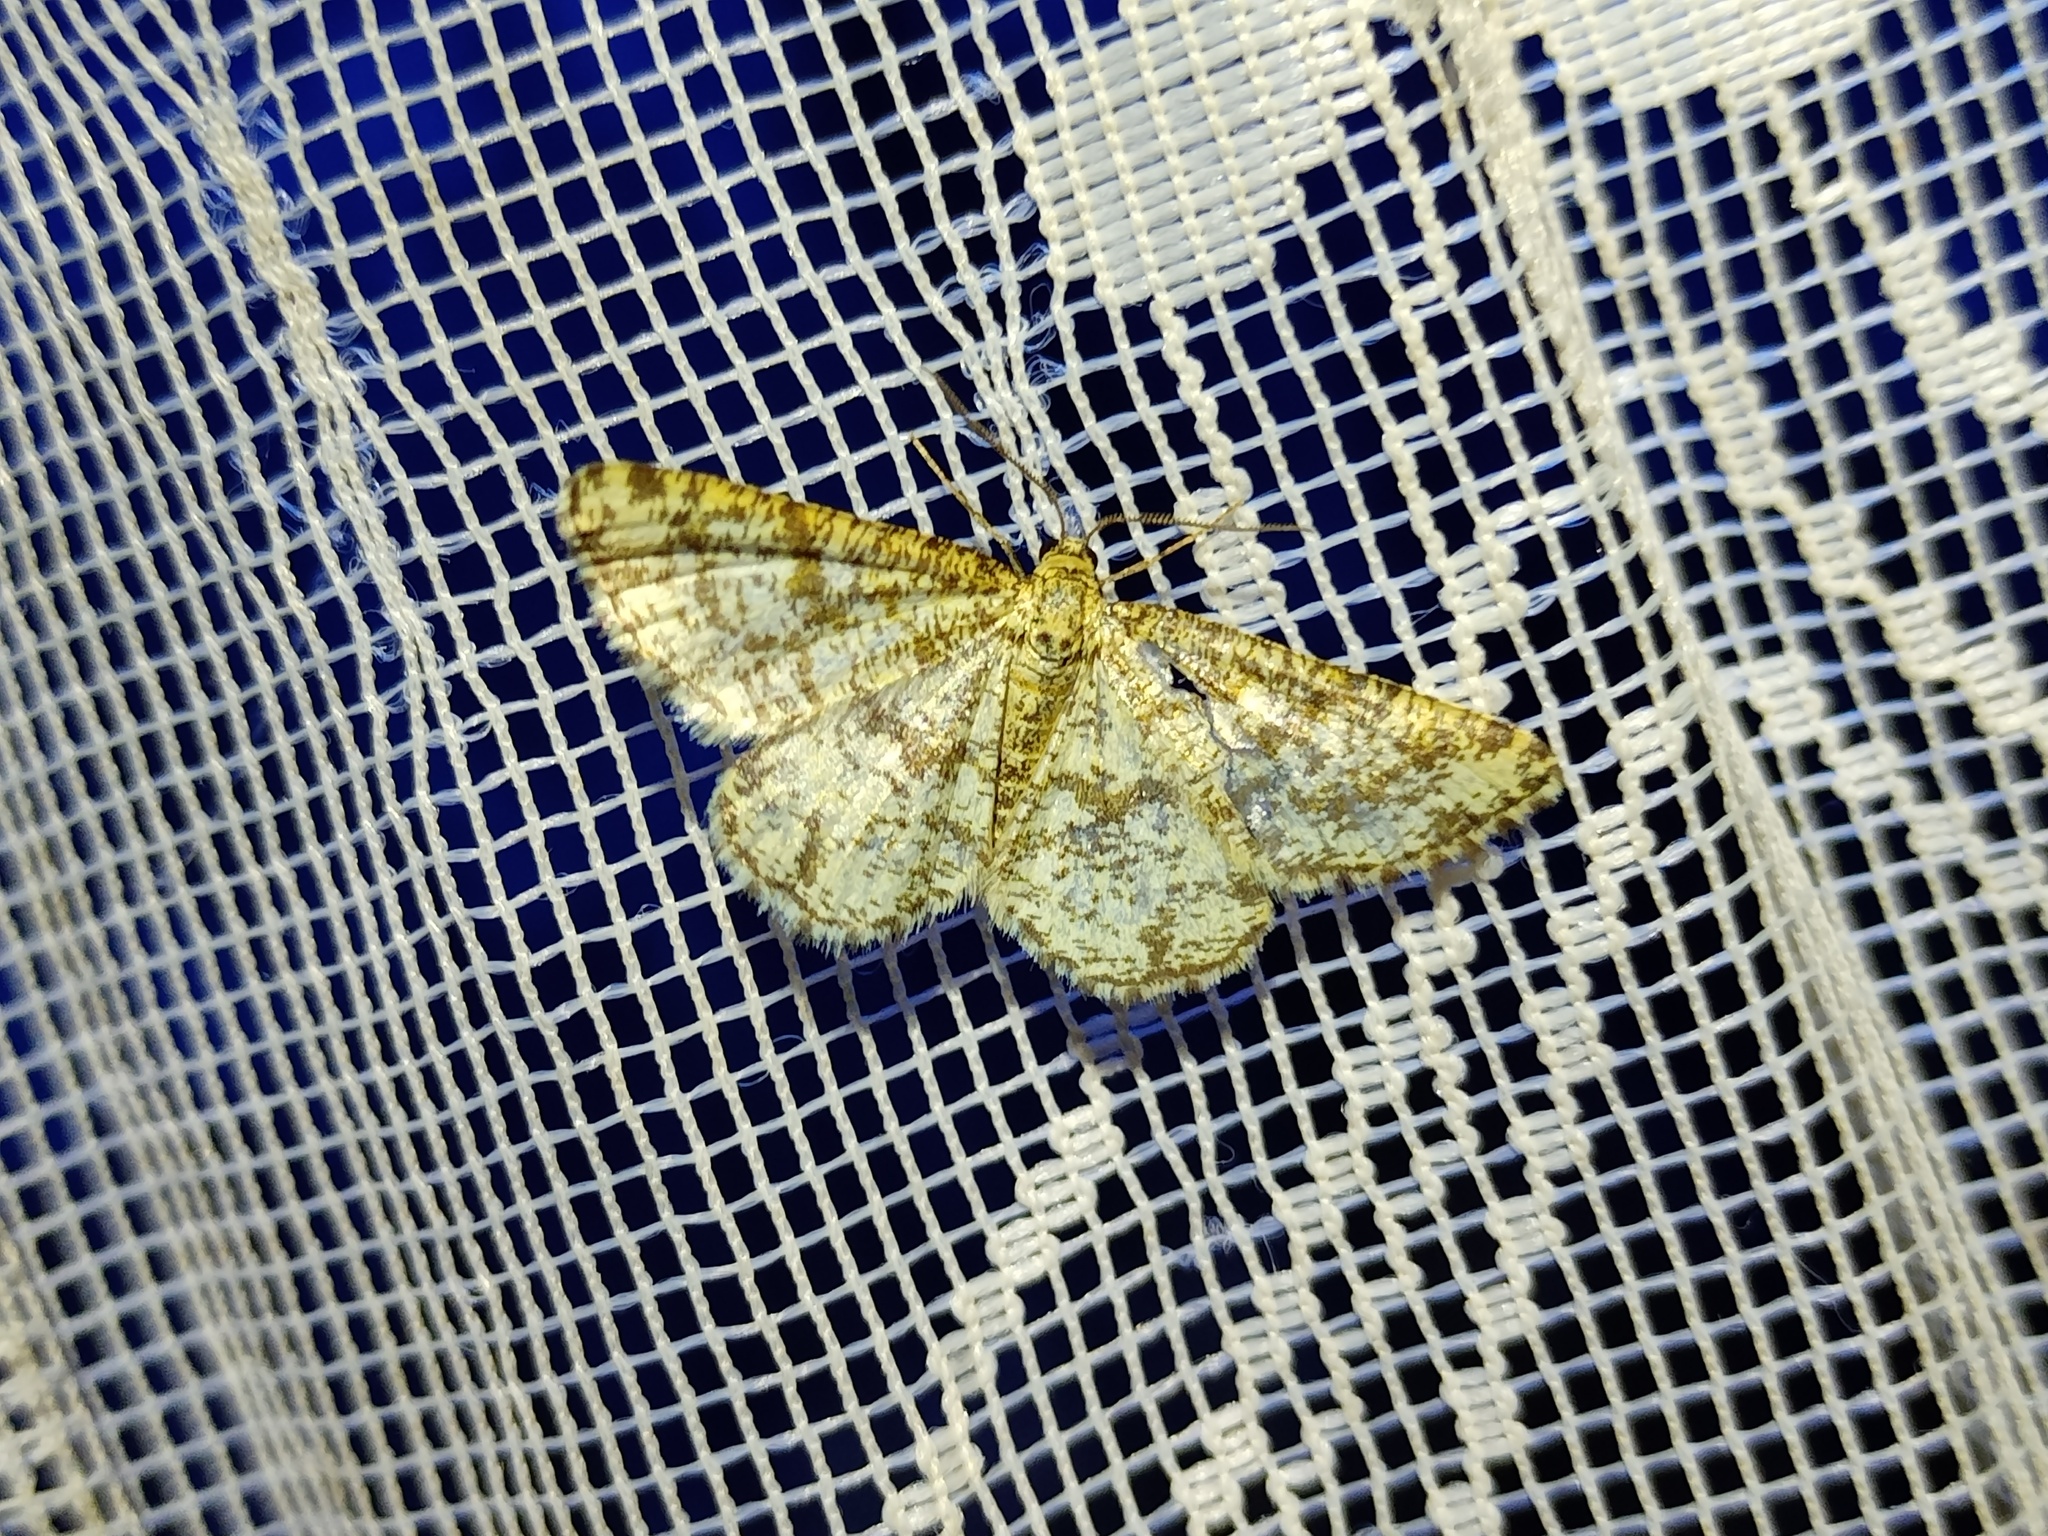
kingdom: Animalia
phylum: Arthropoda
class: Insecta
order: Lepidoptera
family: Geometridae
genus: Heliomata
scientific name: Heliomata glarearia
